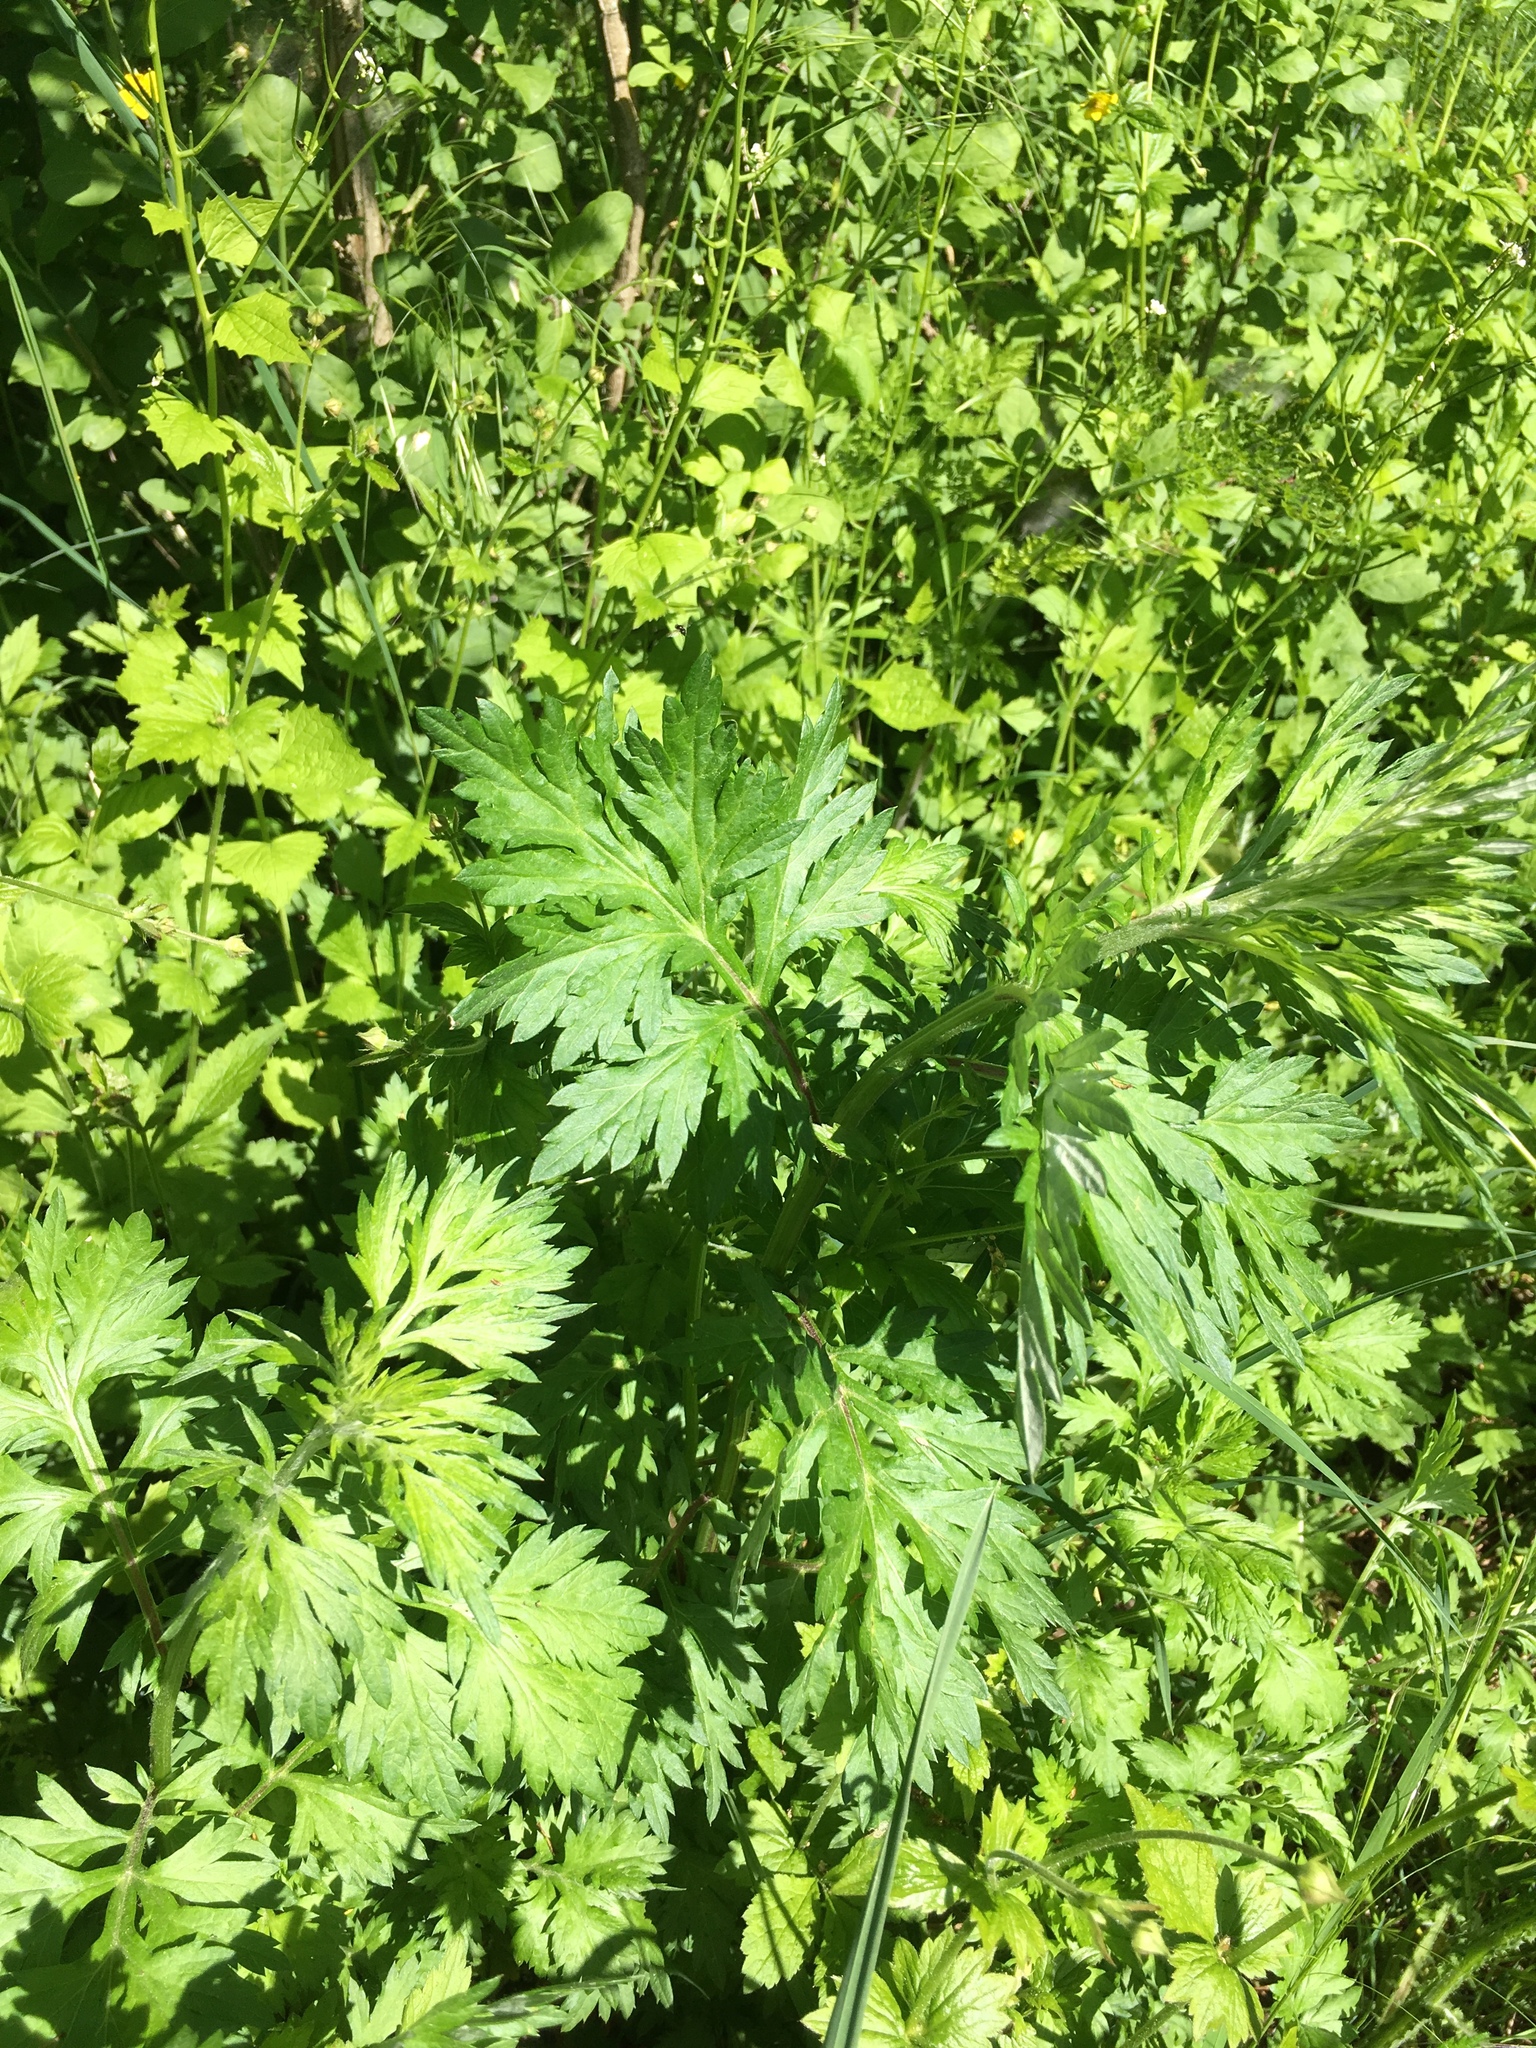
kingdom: Plantae
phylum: Tracheophyta
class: Magnoliopsida
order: Asterales
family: Asteraceae
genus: Artemisia
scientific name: Artemisia vulgaris
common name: Mugwort
